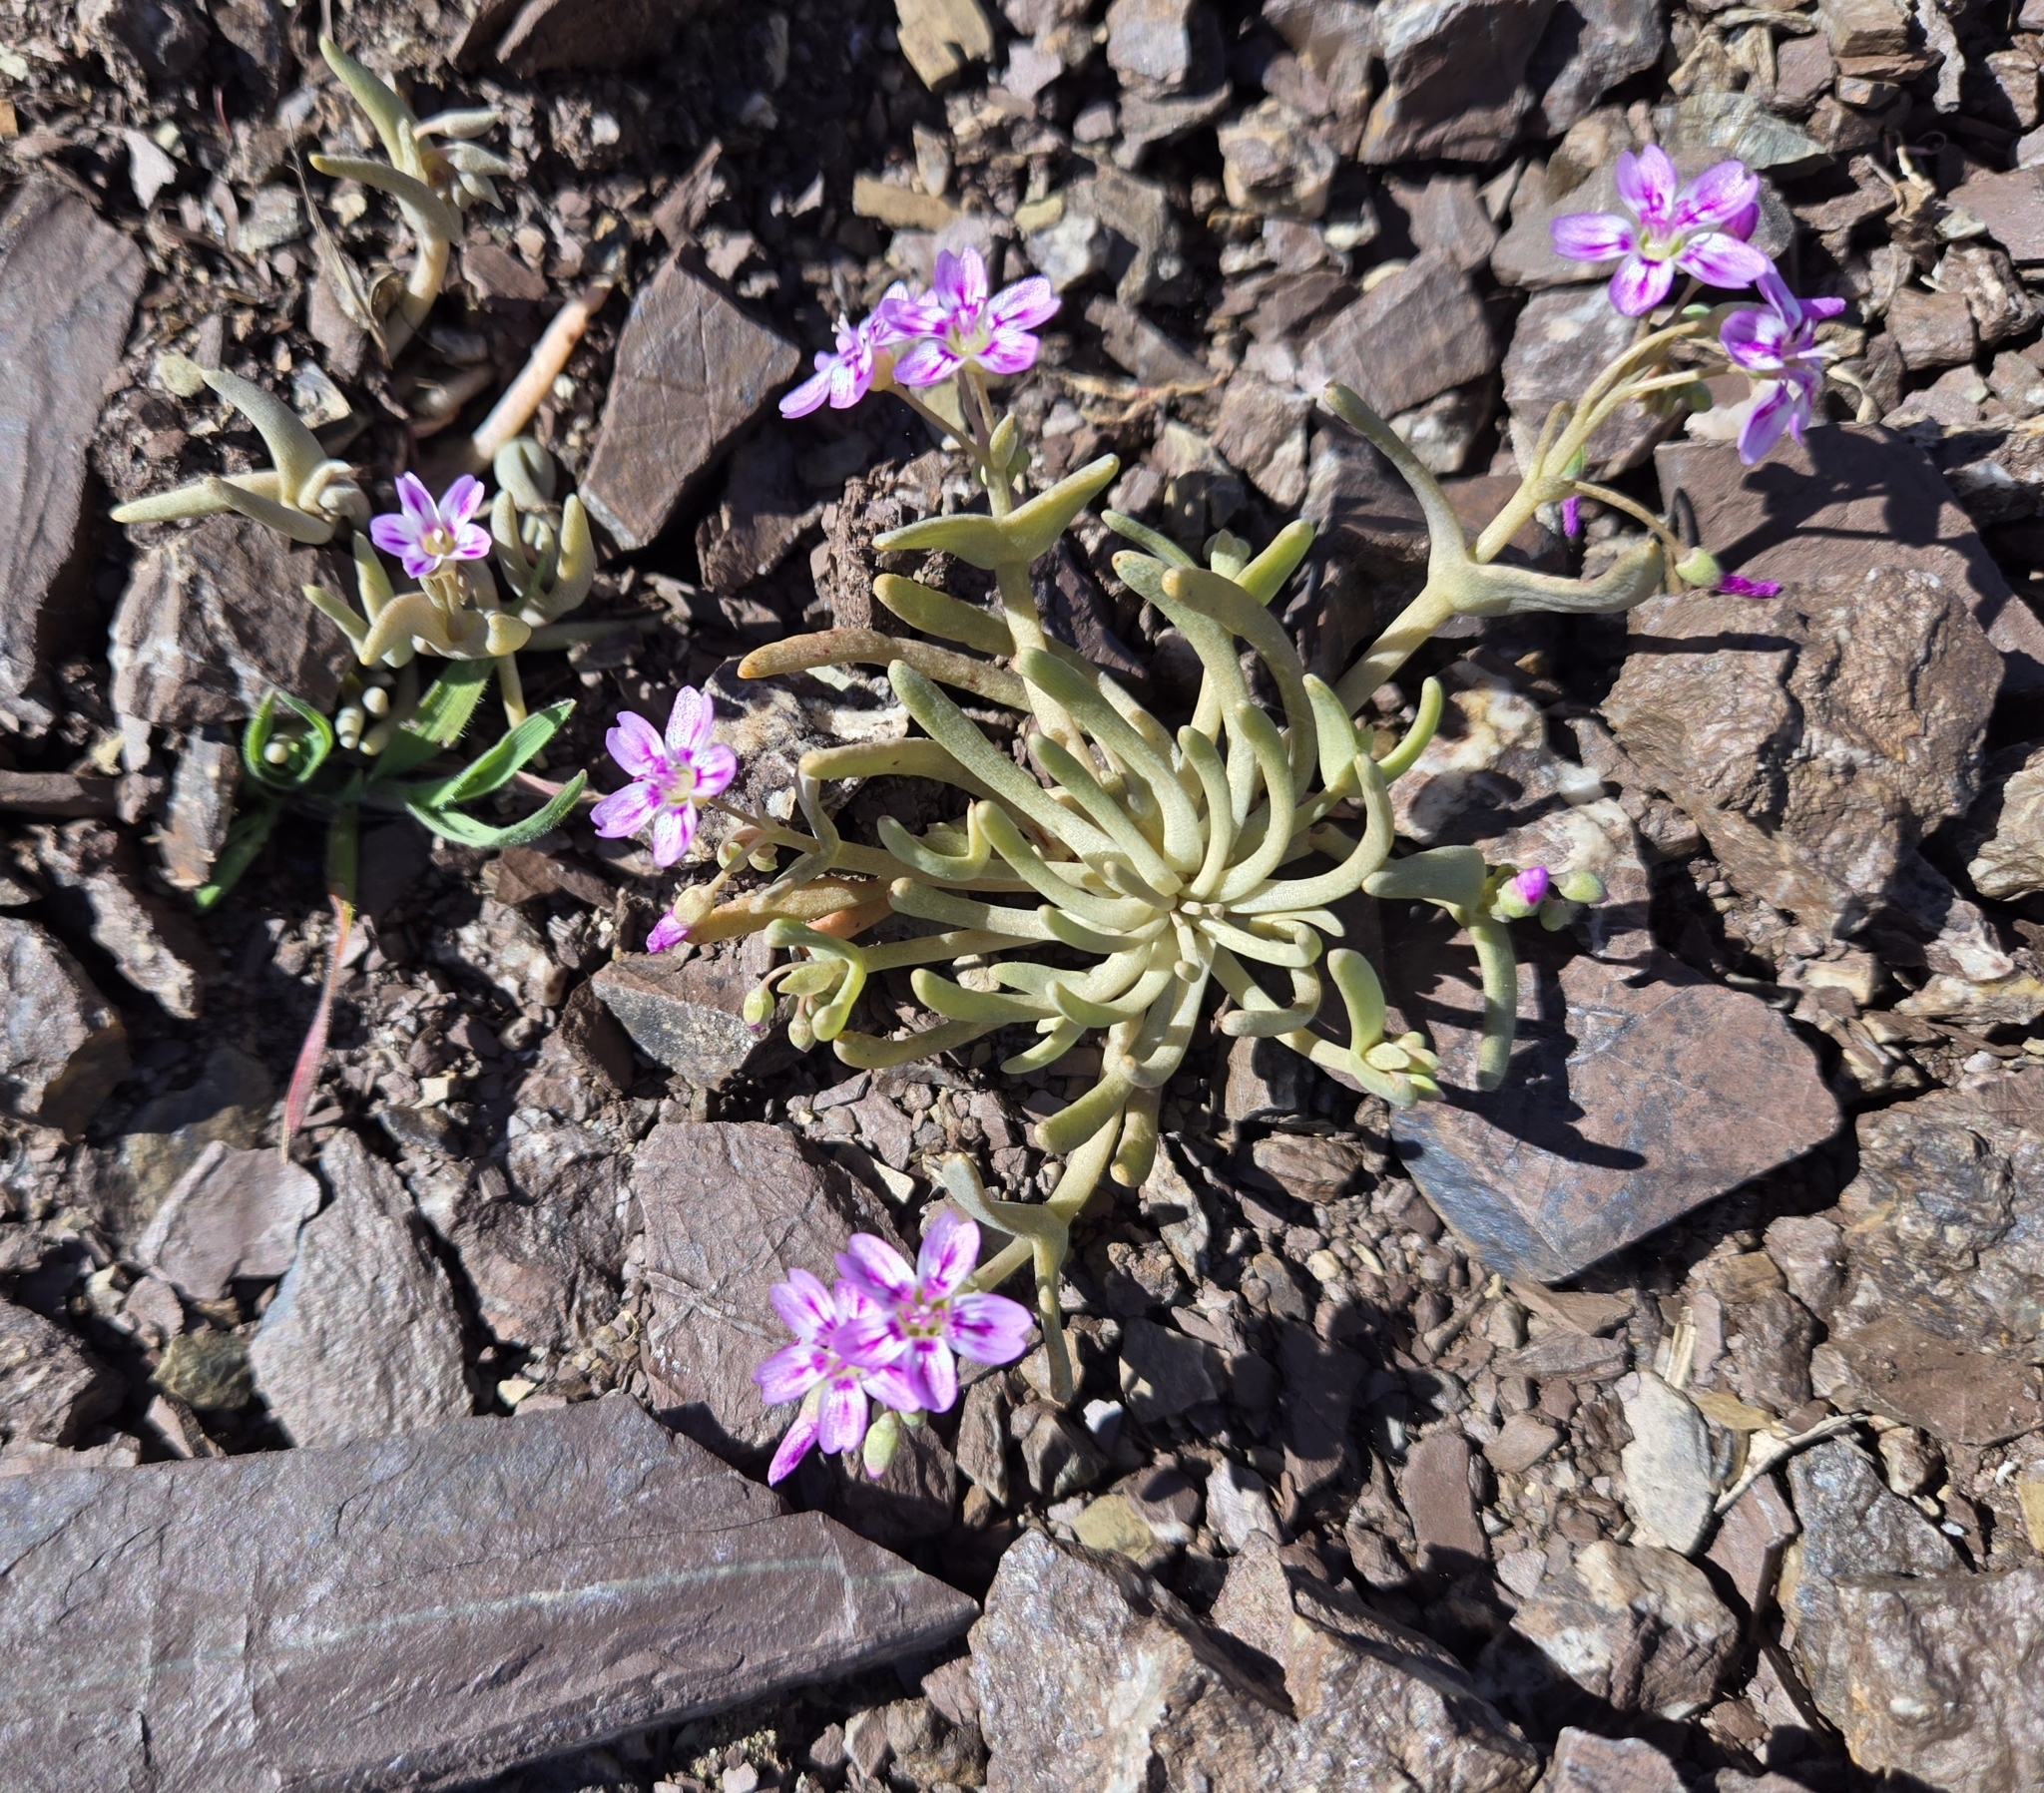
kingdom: Plantae
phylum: Tracheophyta
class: Magnoliopsida
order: Caryophyllales
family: Montiaceae
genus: Claytonia
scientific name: Claytonia gypsophiloides
